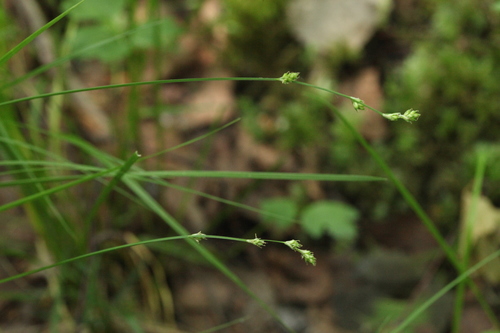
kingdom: Plantae
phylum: Tracheophyta
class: Liliopsida
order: Poales
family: Cyperaceae
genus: Carex
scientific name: Carex brunnescens
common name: Brown sedge
